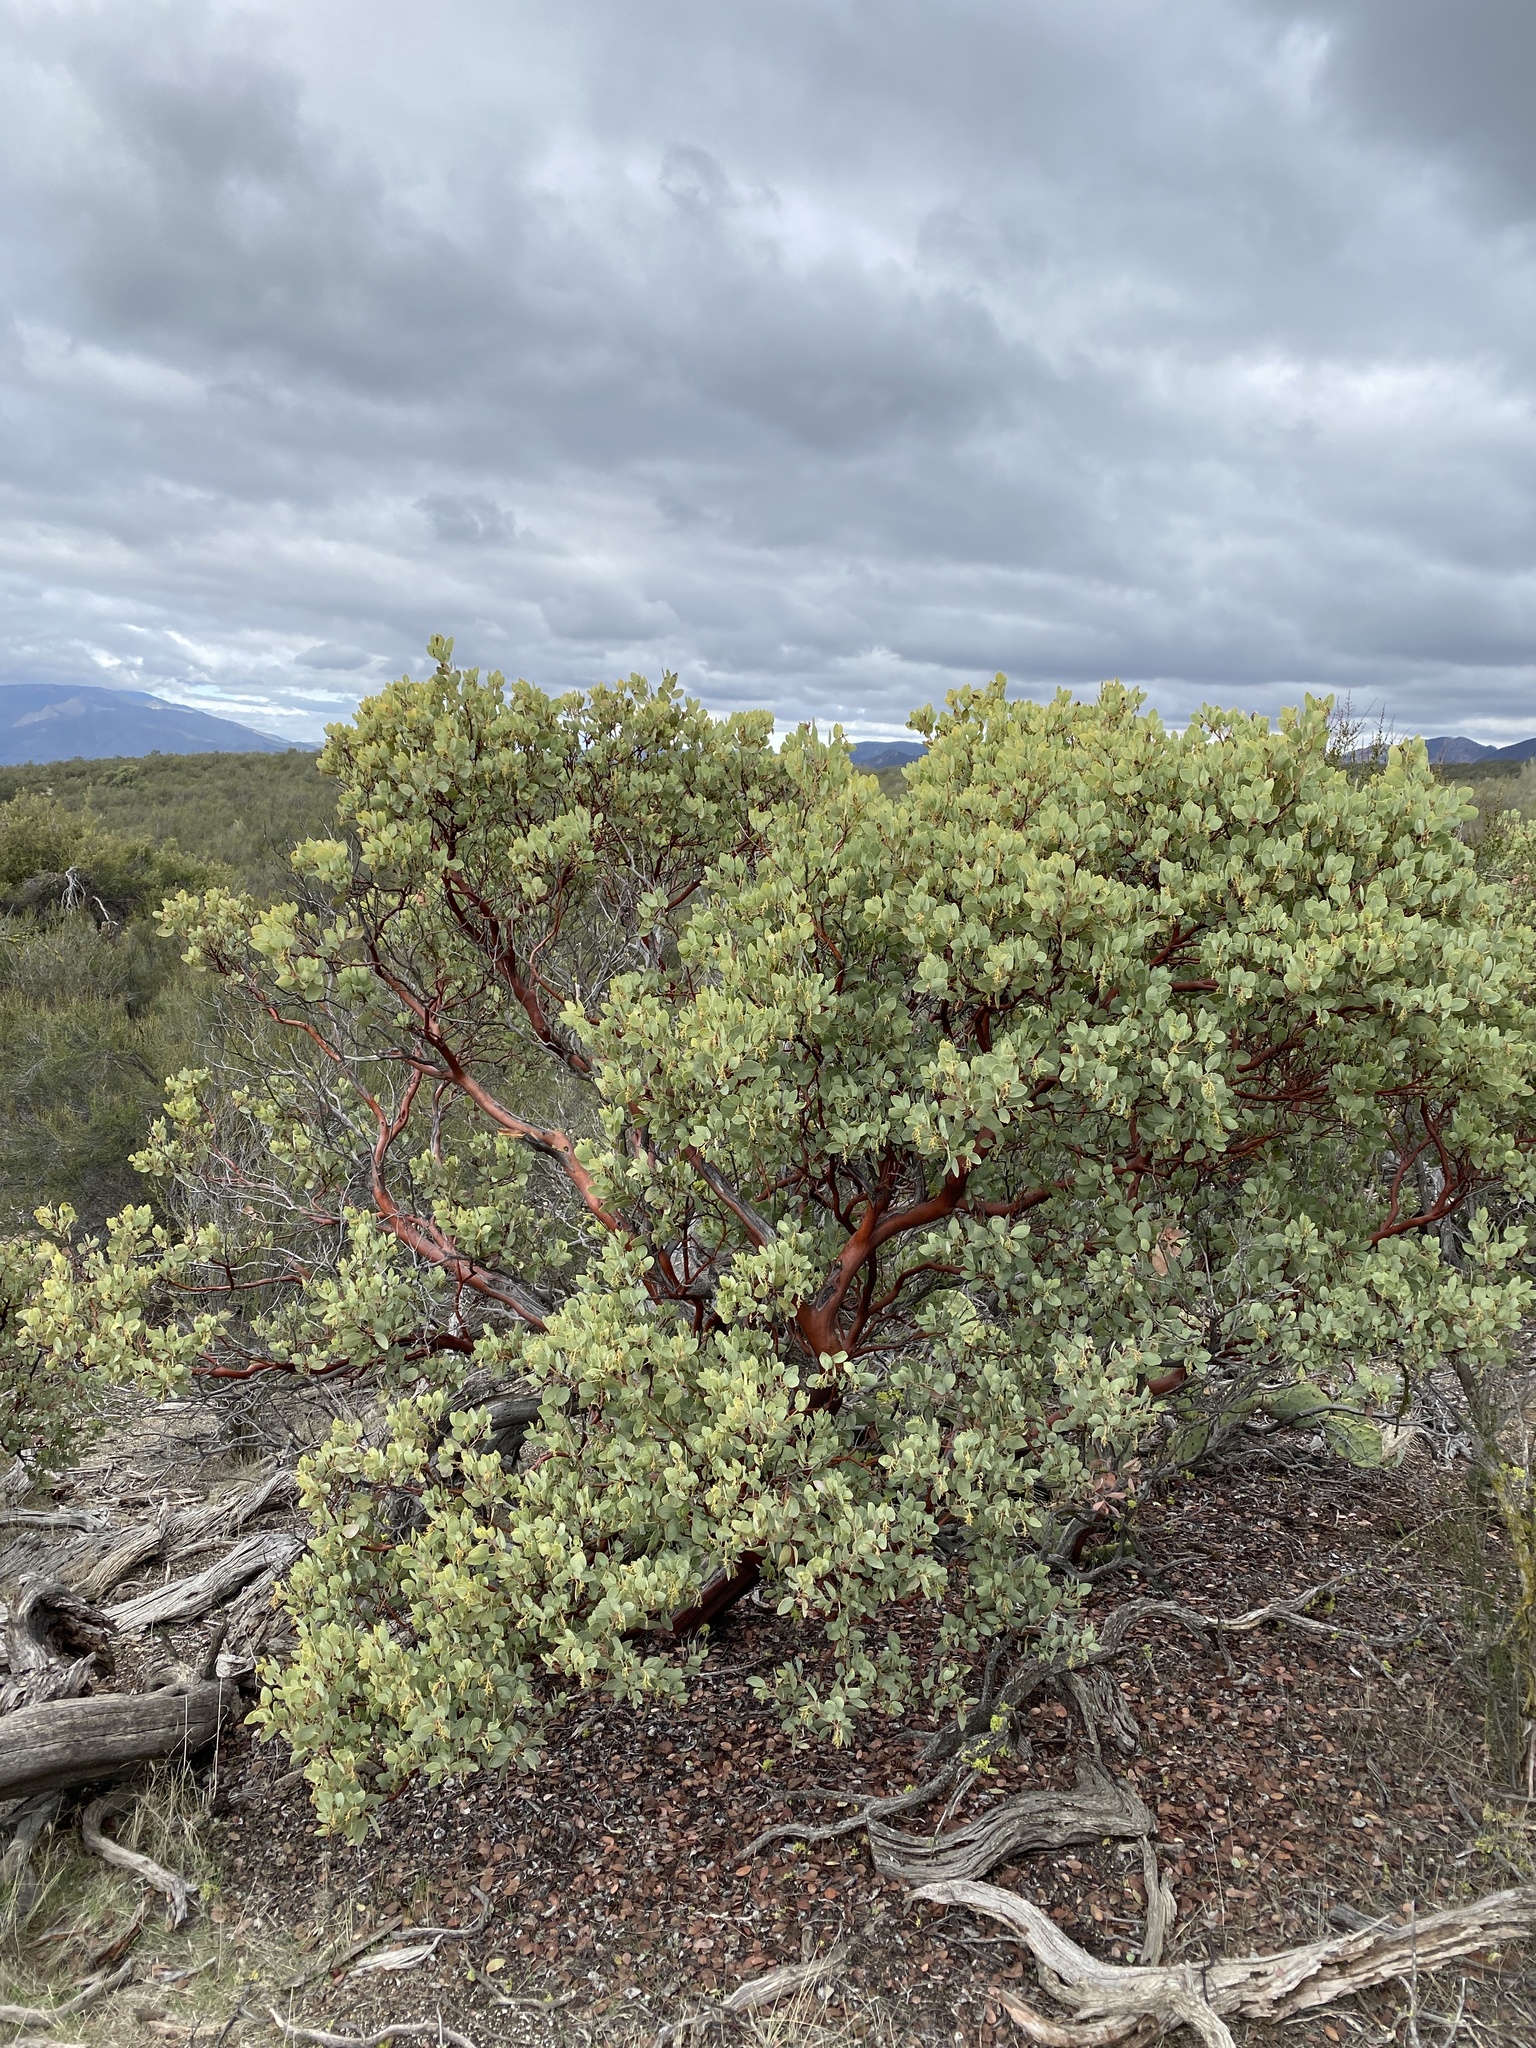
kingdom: Plantae
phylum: Tracheophyta
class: Magnoliopsida
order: Ericales
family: Ericaceae
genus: Arctostaphylos
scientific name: Arctostaphylos glauca
